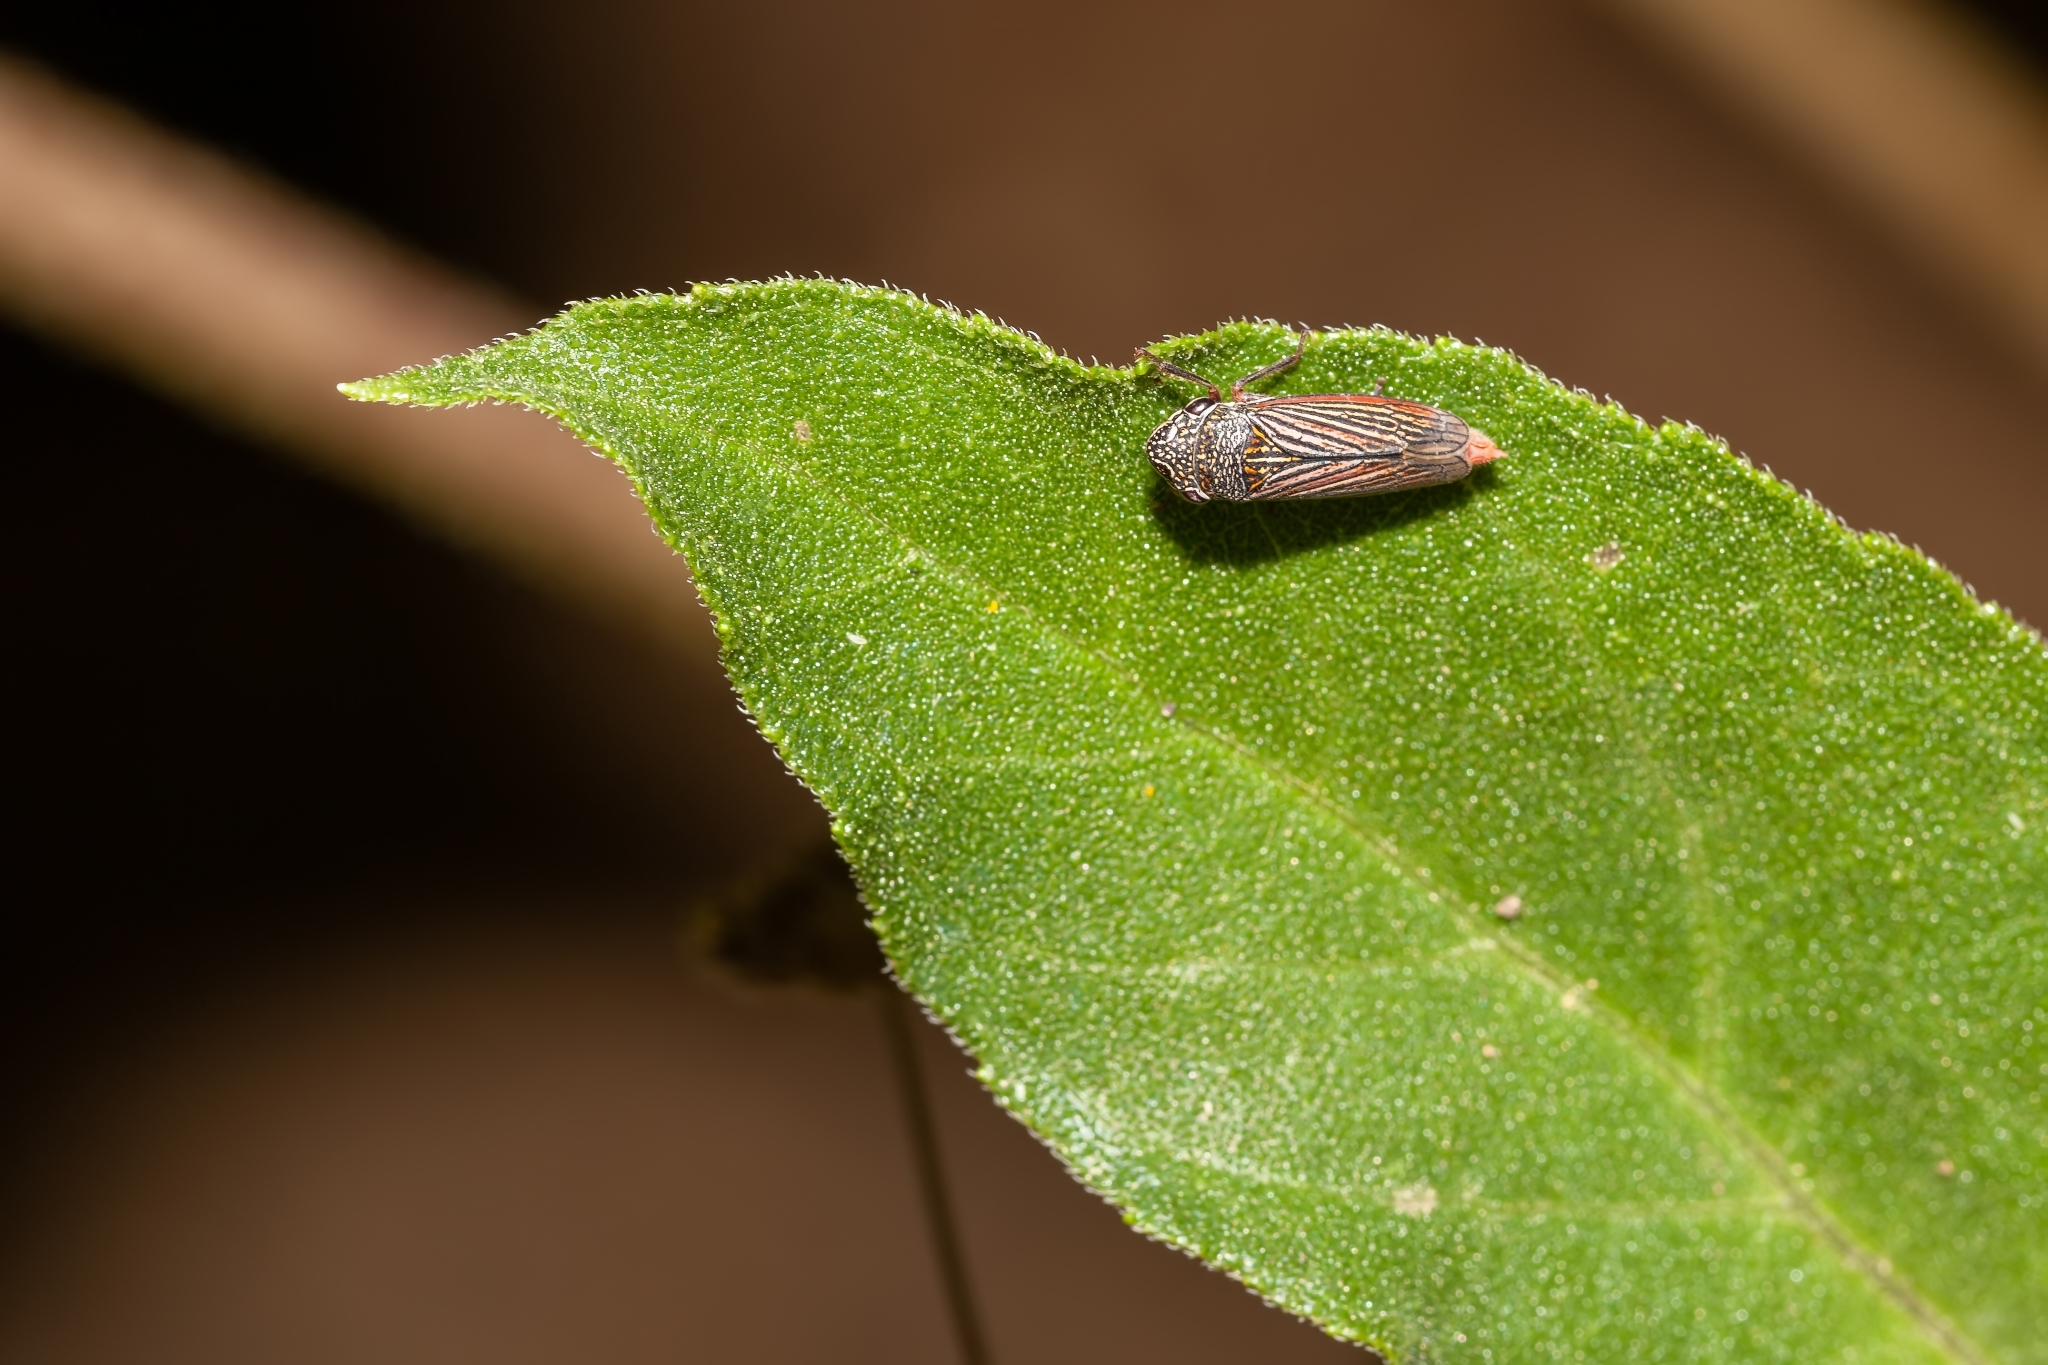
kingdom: Animalia
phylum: Arthropoda
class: Insecta
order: Hemiptera
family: Cicadellidae
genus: Cuerna
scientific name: Cuerna costalis
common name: Lateral-lined sharpshooter
